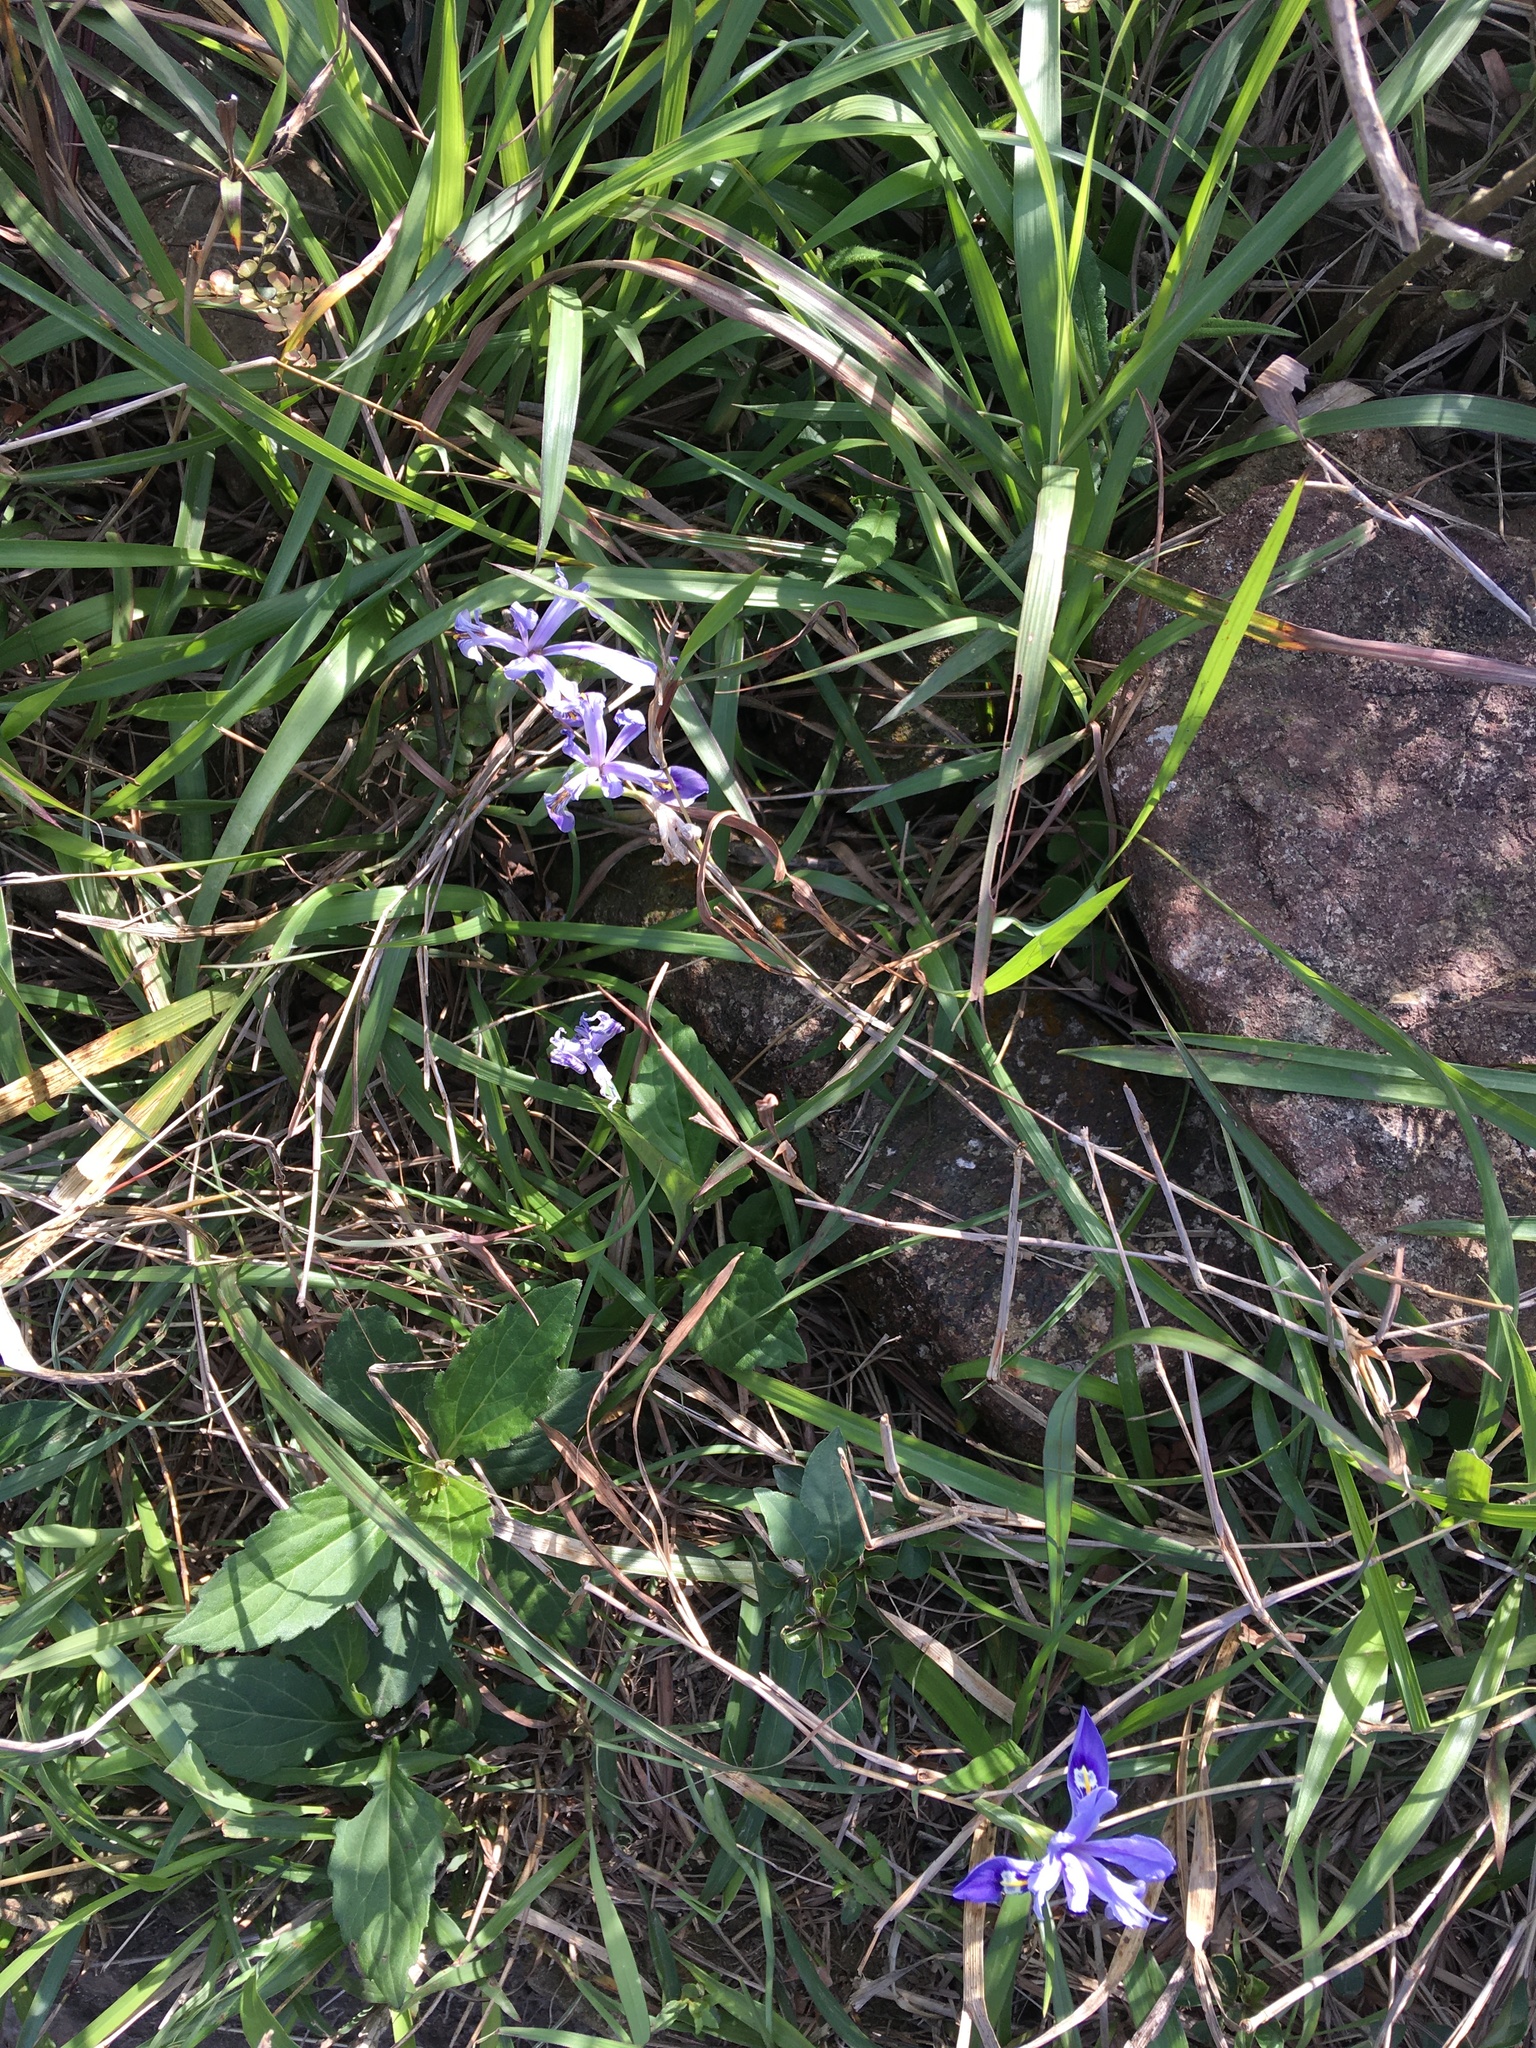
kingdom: Plantae
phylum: Tracheophyta
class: Liliopsida
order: Asparagales
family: Iridaceae
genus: Iris
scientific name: Iris speculatrix
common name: Small-flower iris
